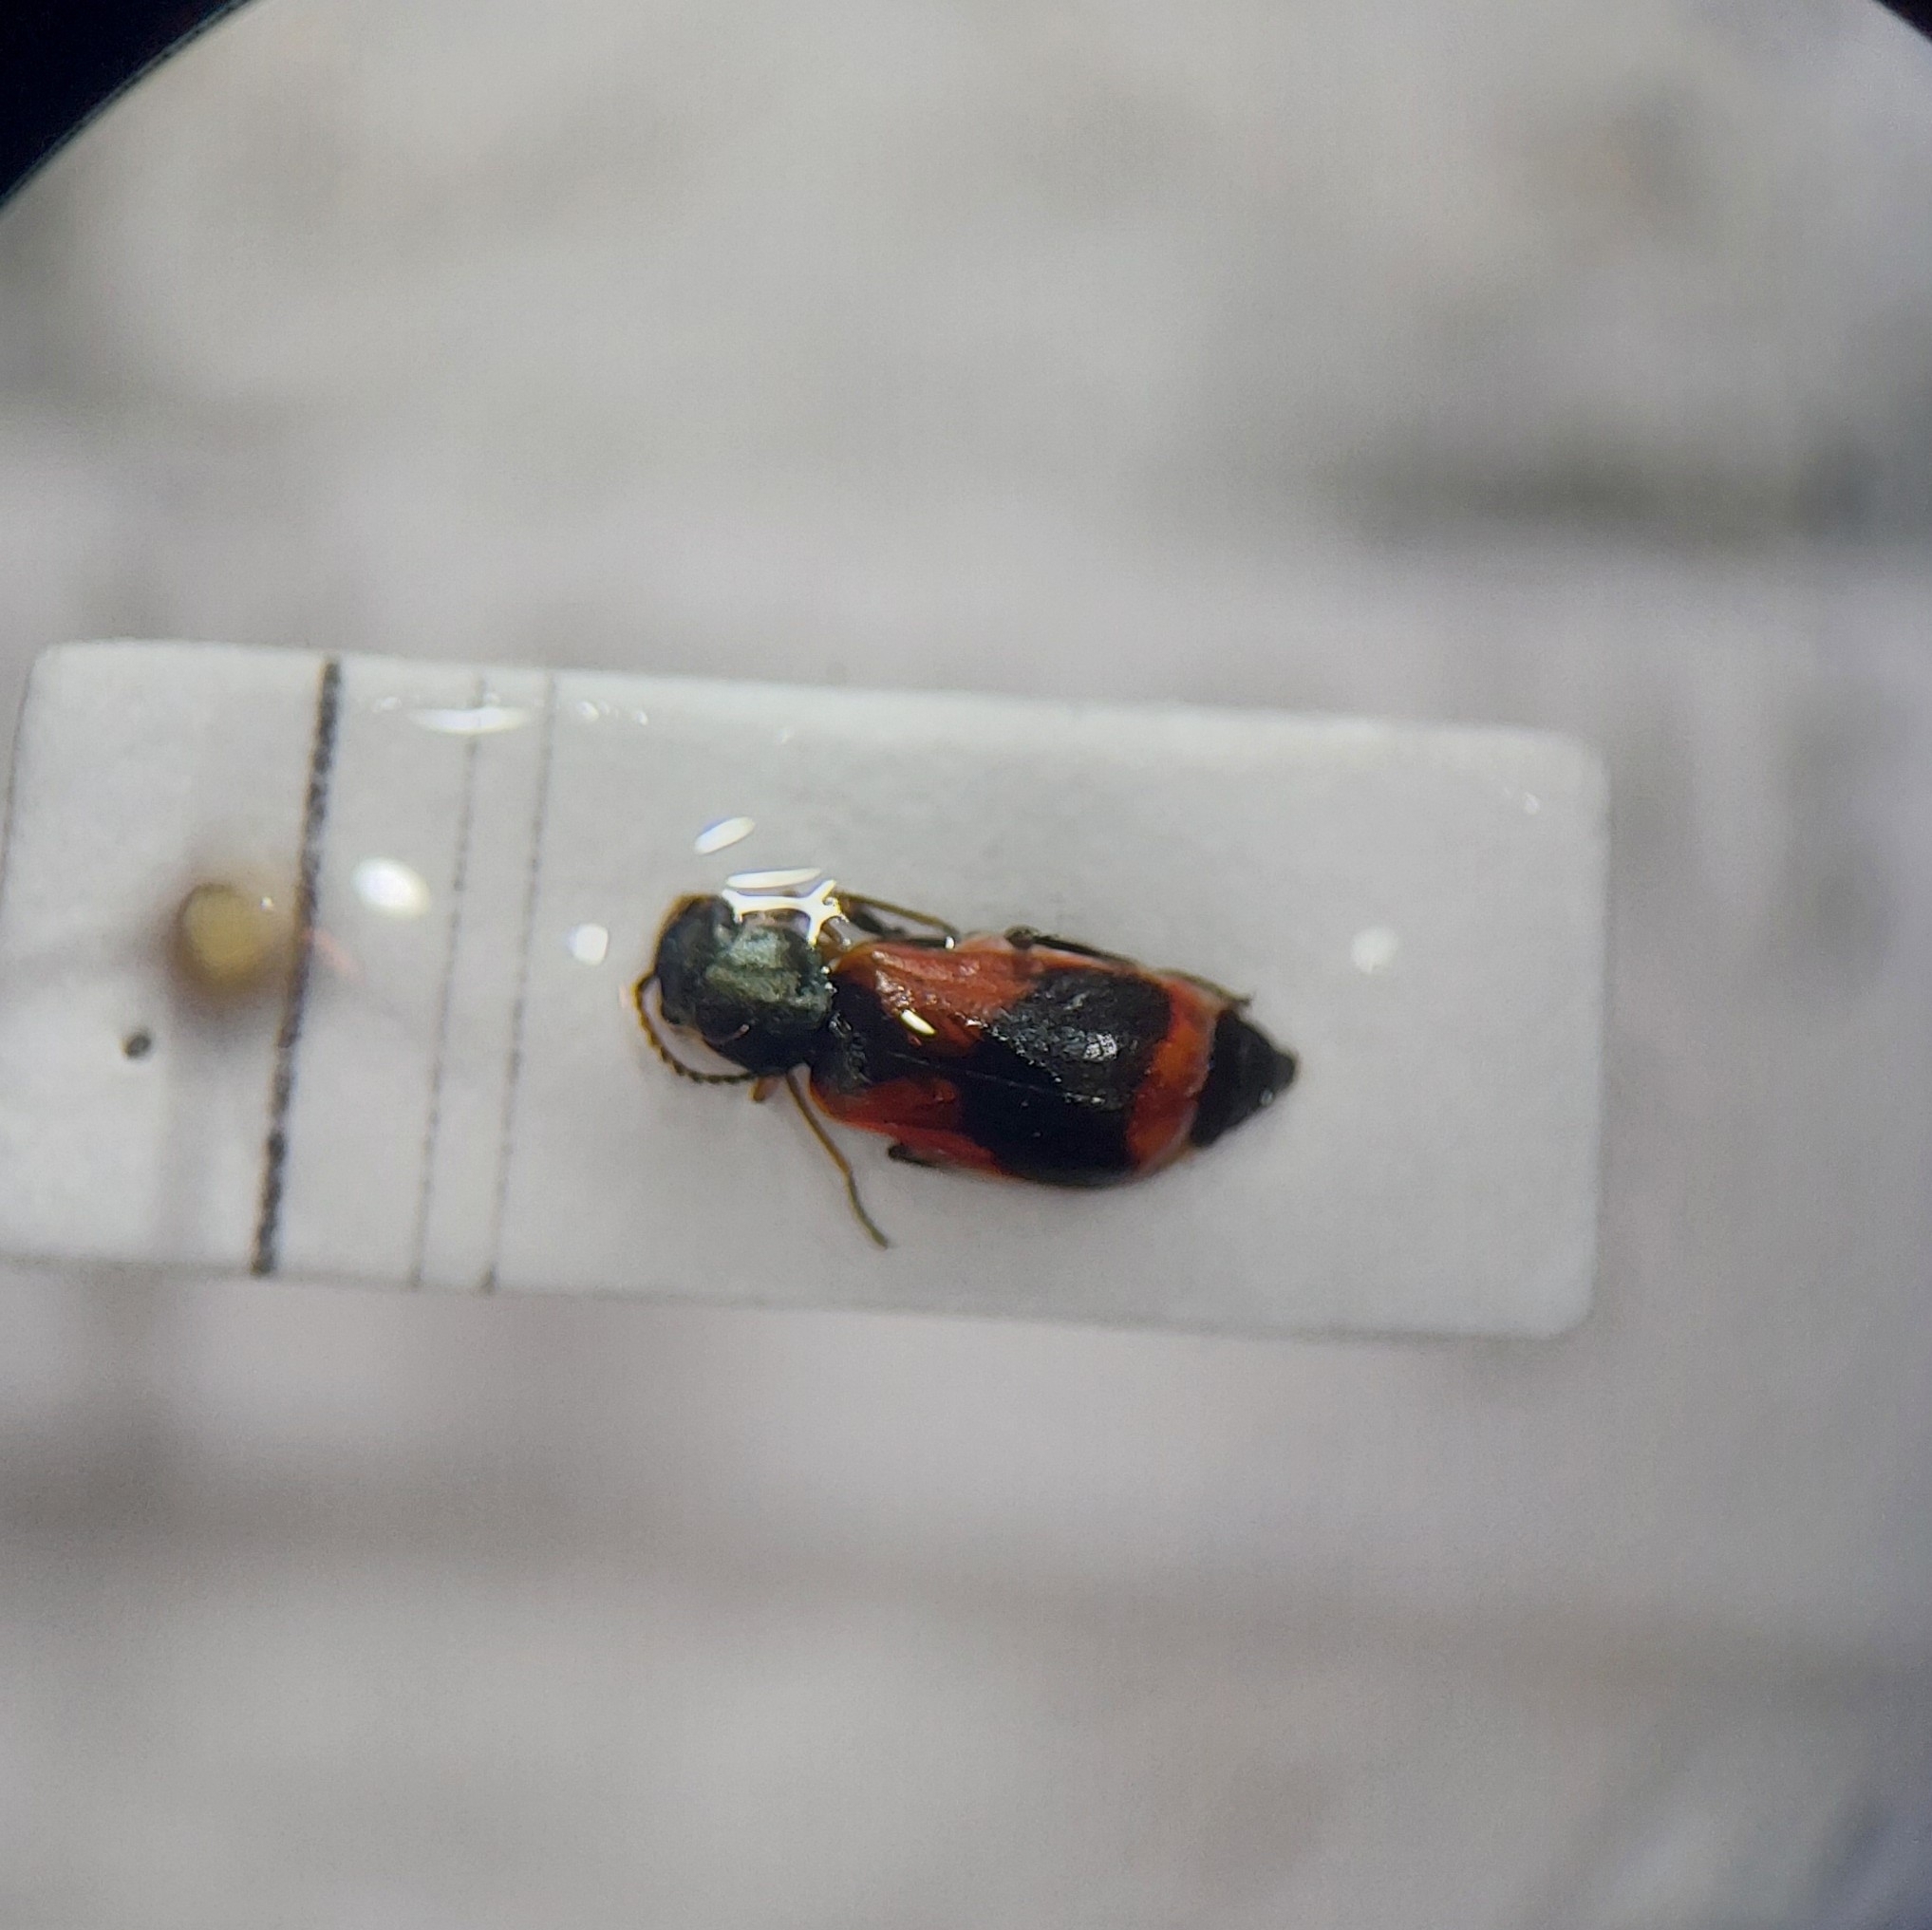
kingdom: Animalia
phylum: Arthropoda
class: Insecta
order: Coleoptera
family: Melyridae
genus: Anthocomus
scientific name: Anthocomus equestris
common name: Black-banded soft-winged flower beetle
